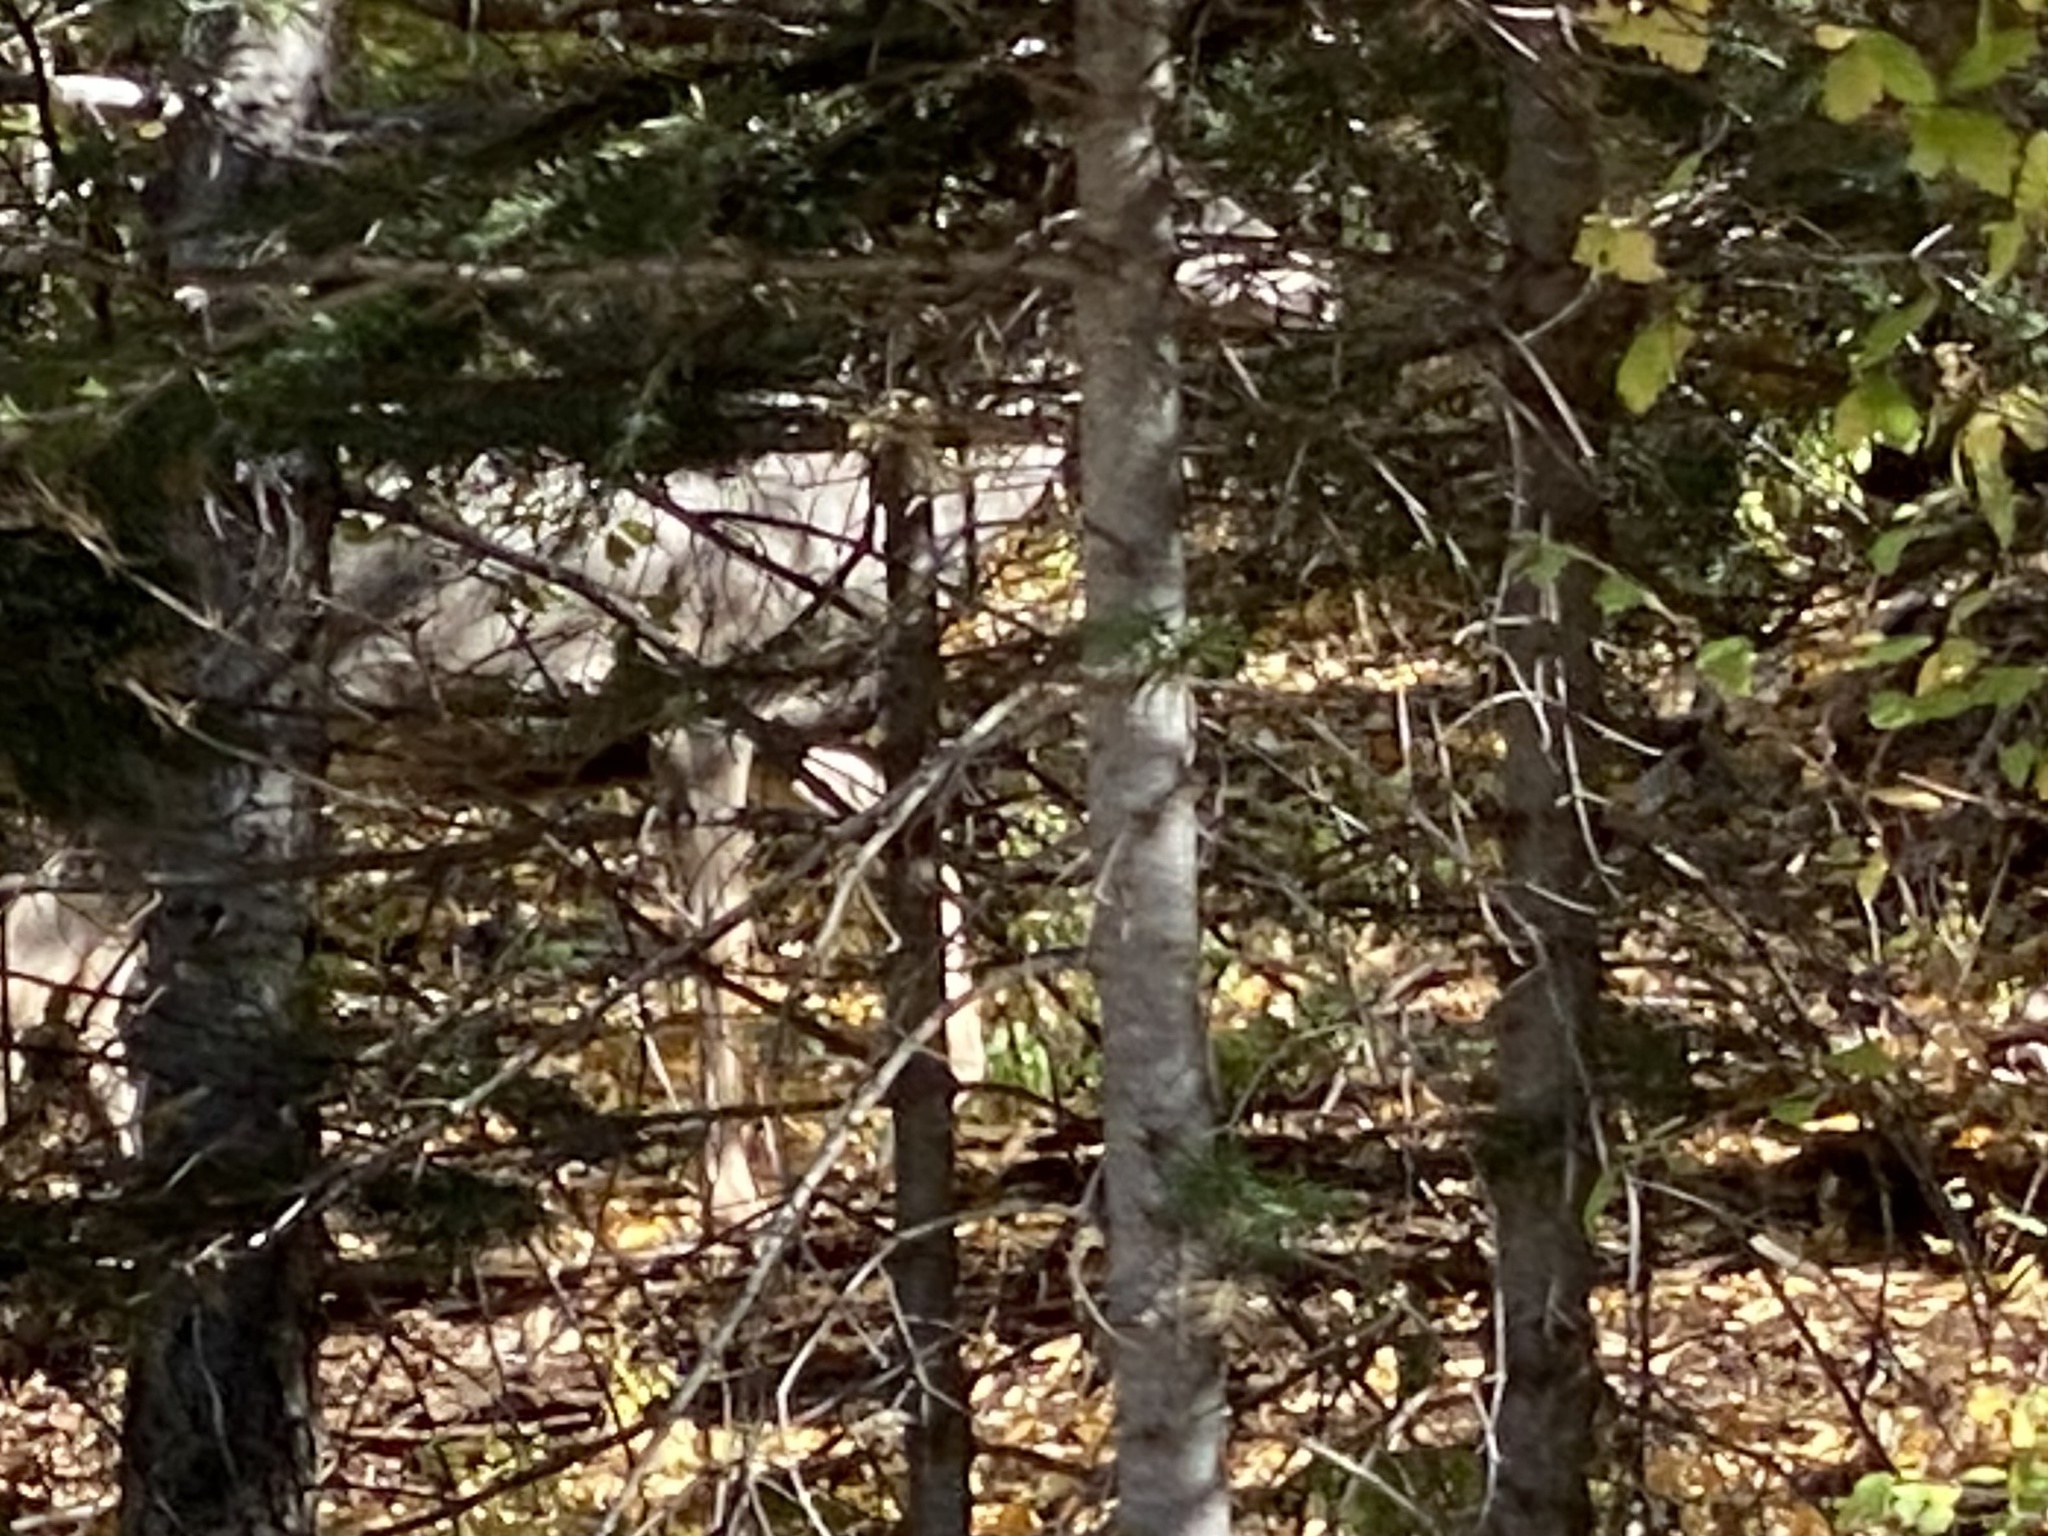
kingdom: Animalia
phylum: Chordata
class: Mammalia
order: Artiodactyla
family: Cervidae
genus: Odocoileus
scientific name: Odocoileus hemionus
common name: Mule deer
